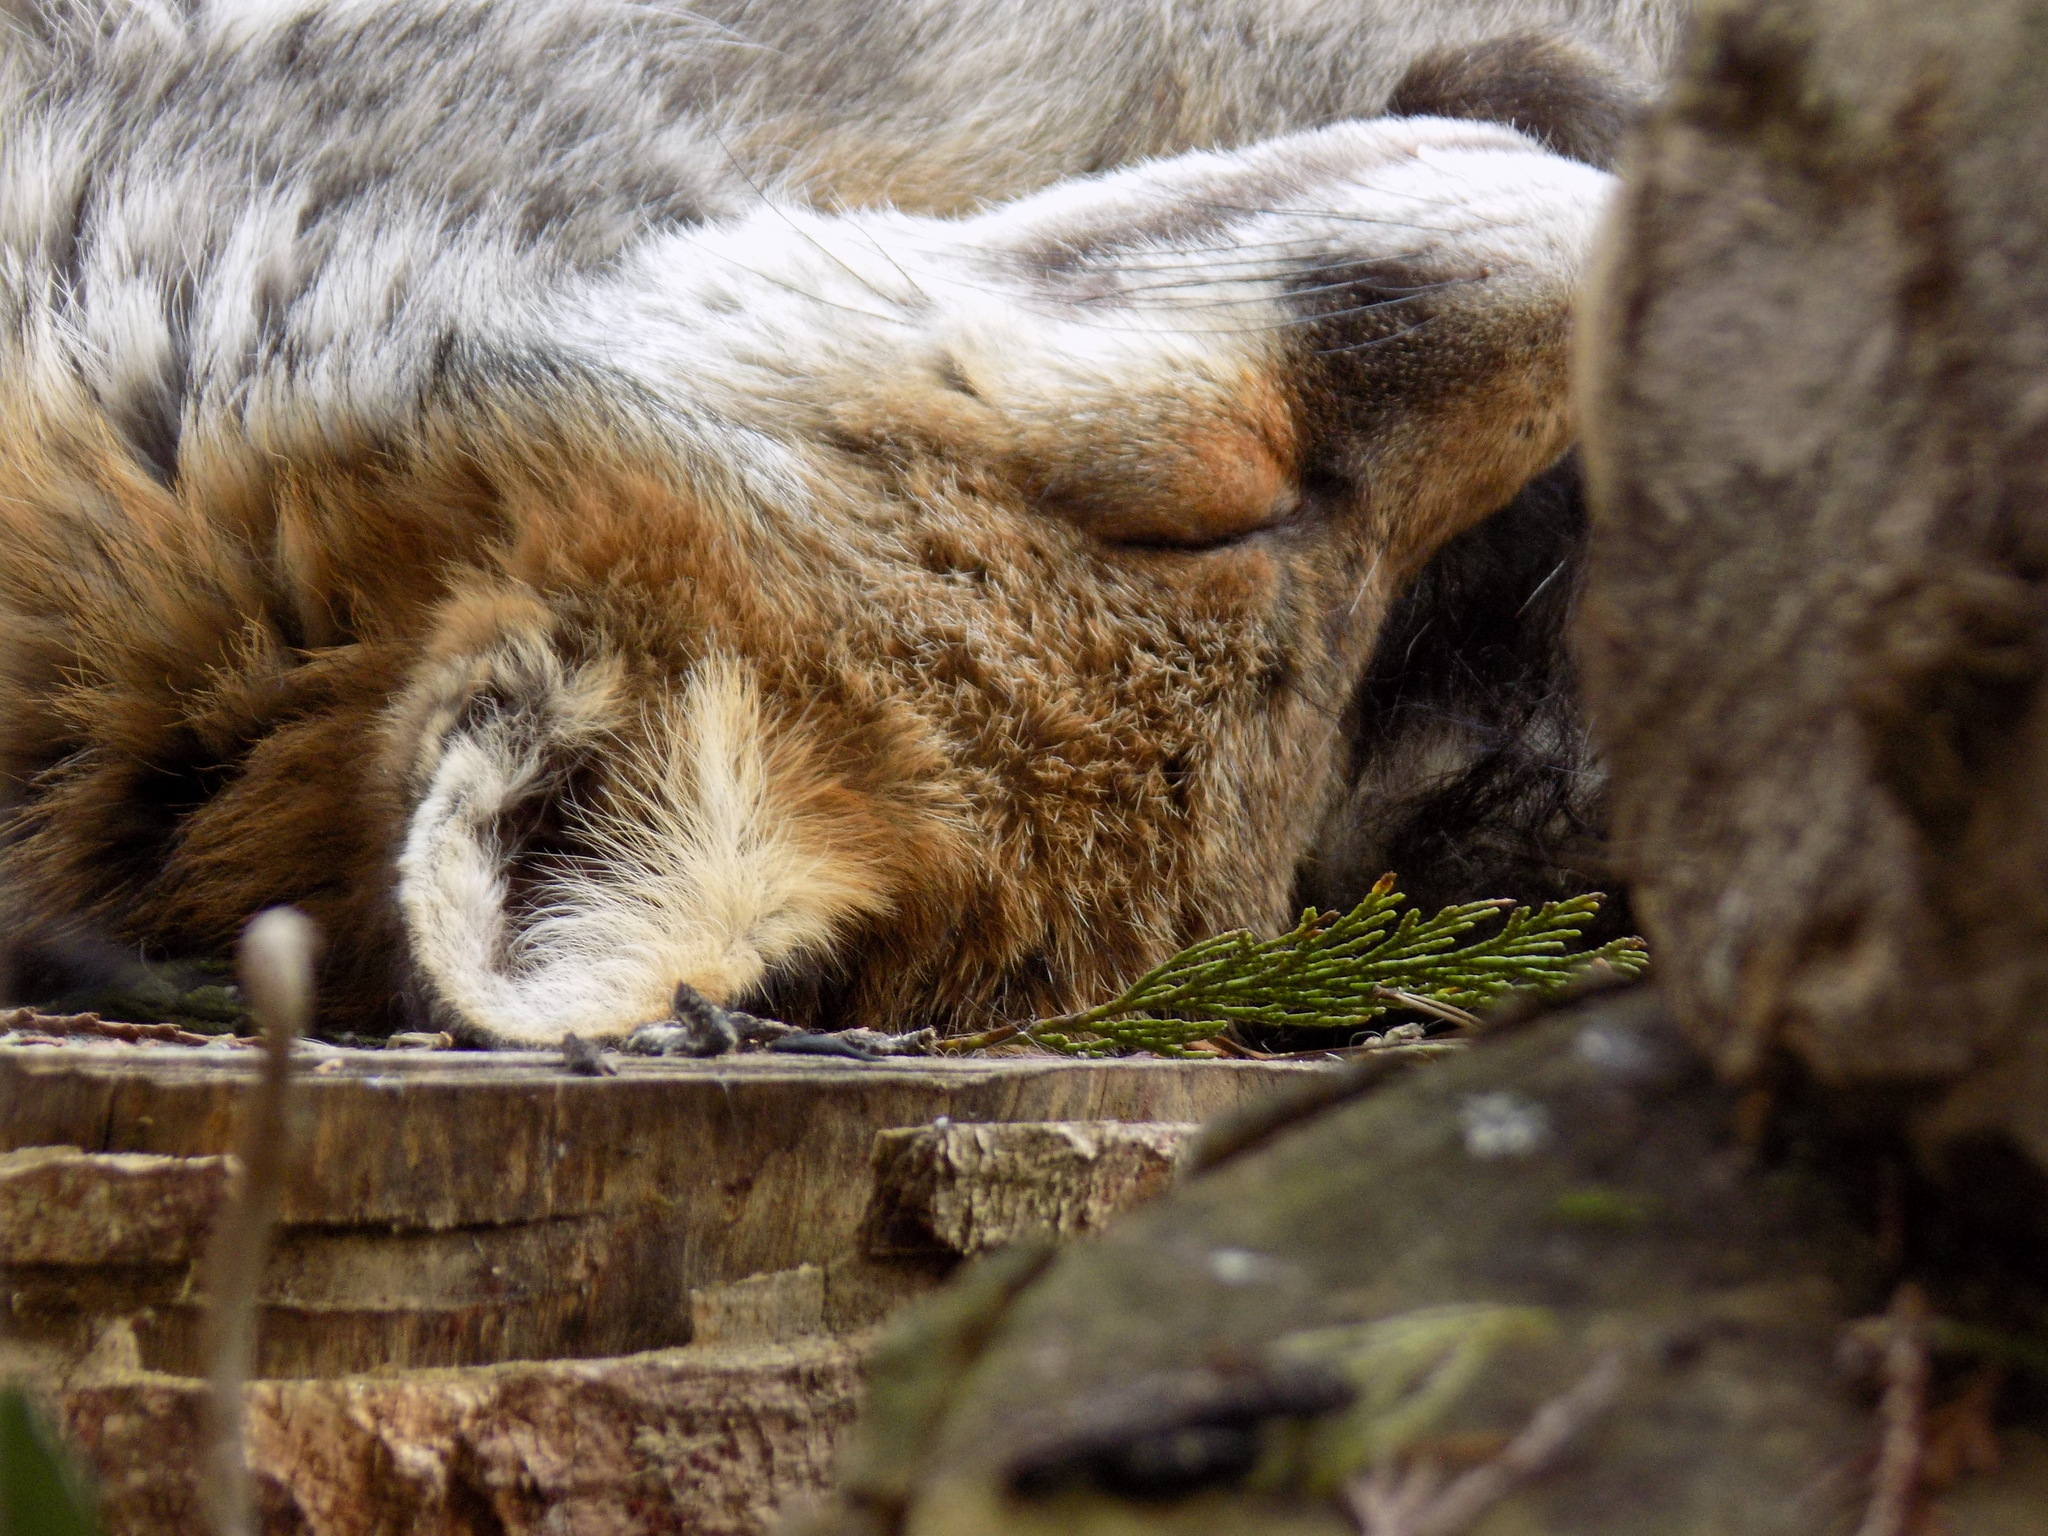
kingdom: Animalia
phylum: Chordata
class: Mammalia
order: Carnivora
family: Canidae
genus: Vulpes
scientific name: Vulpes vulpes
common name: Red fox
